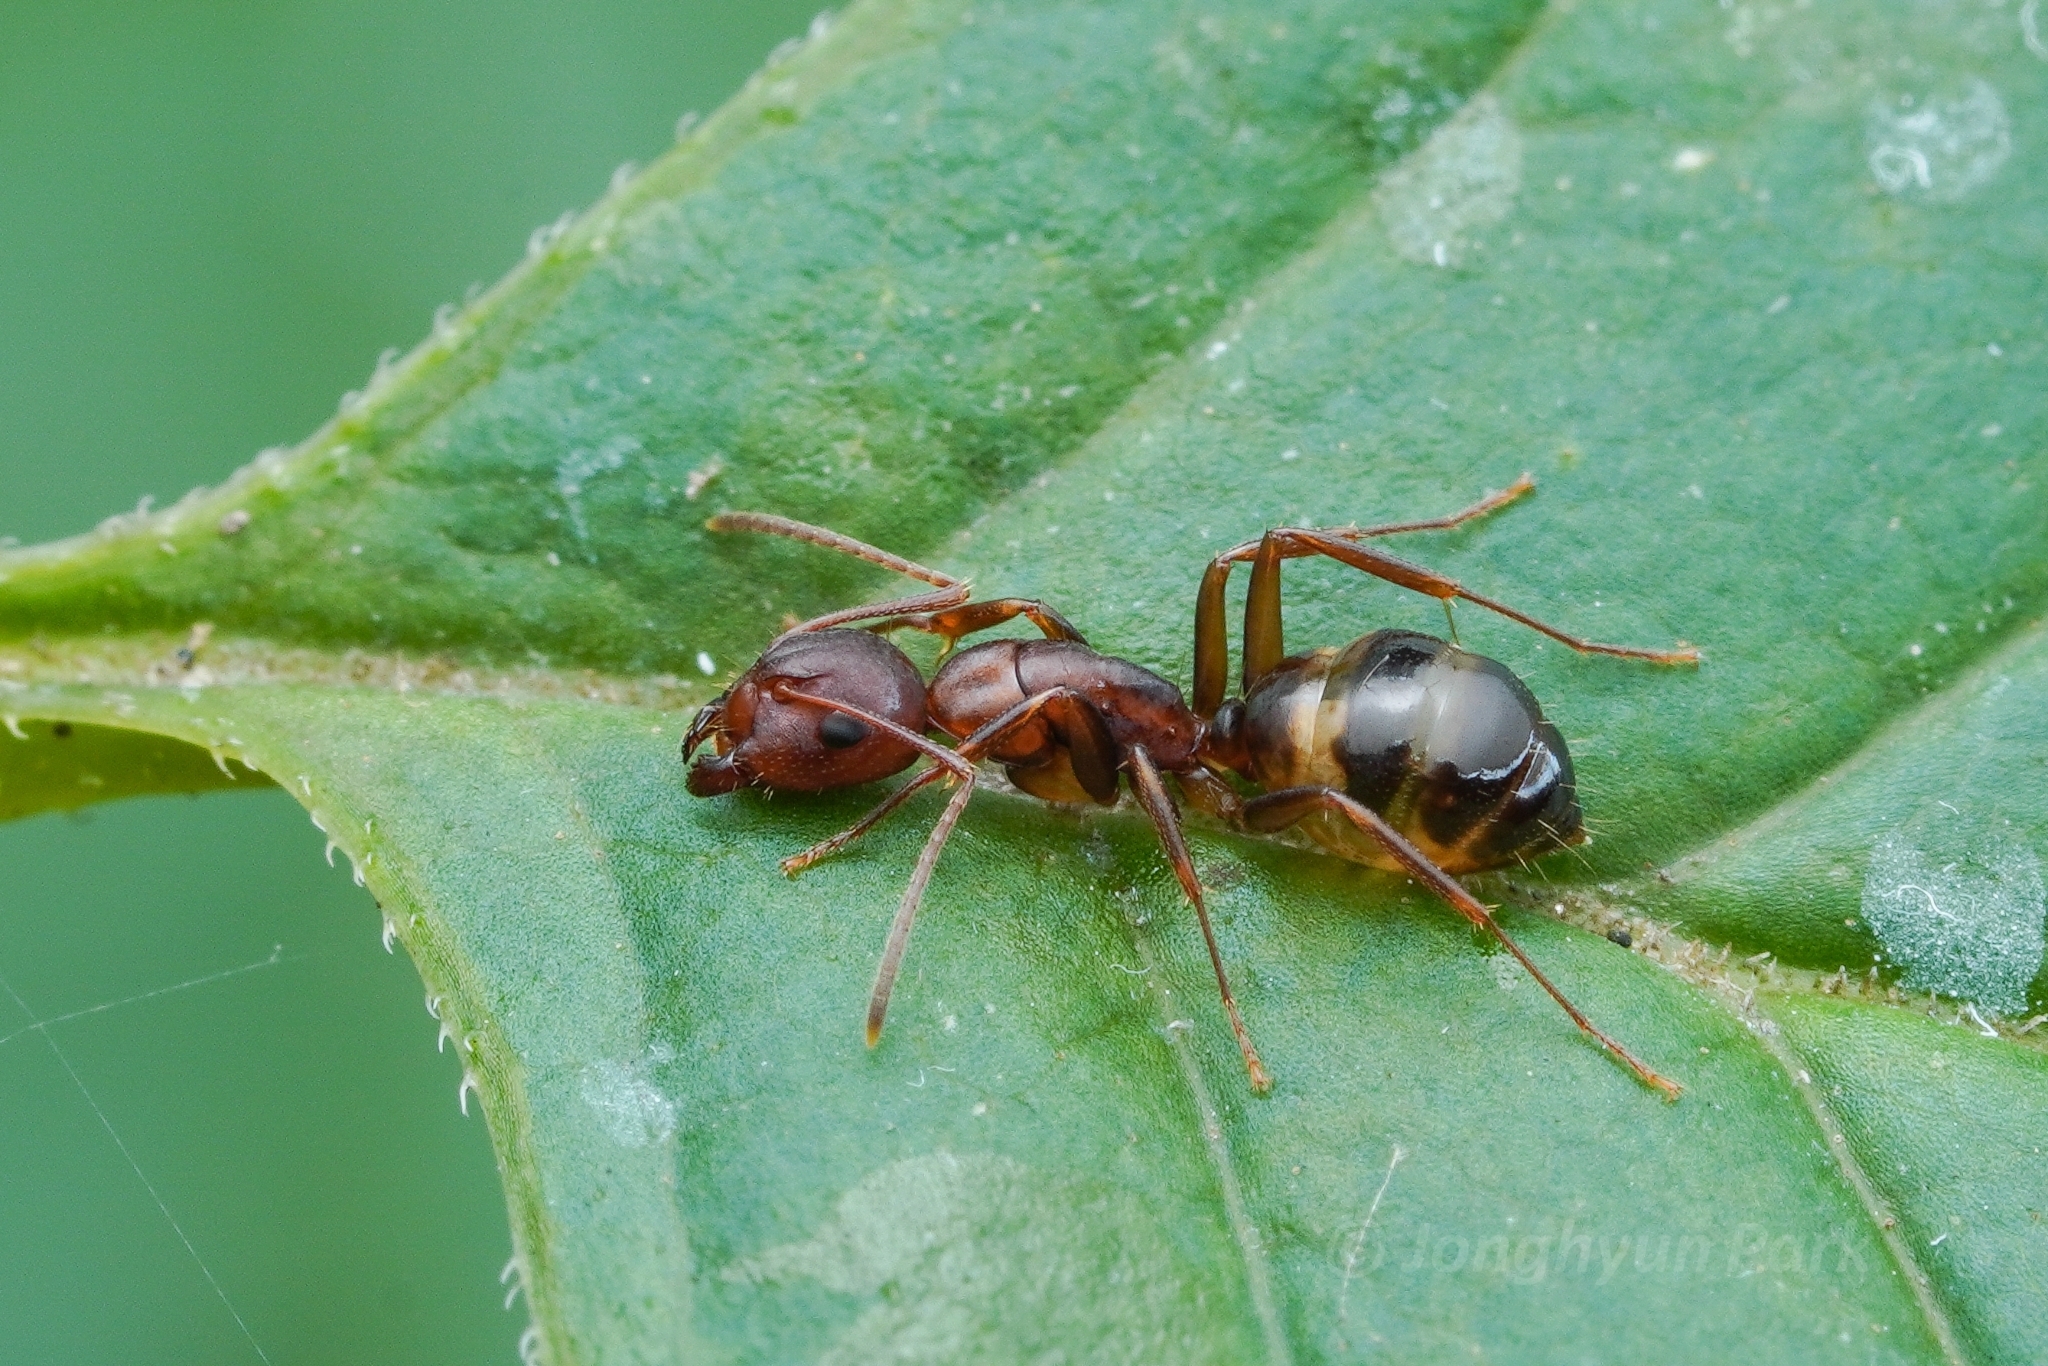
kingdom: Animalia
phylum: Arthropoda
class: Insecta
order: Hymenoptera
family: Formicidae
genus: Camponotus
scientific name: Camponotus subbarbatus
